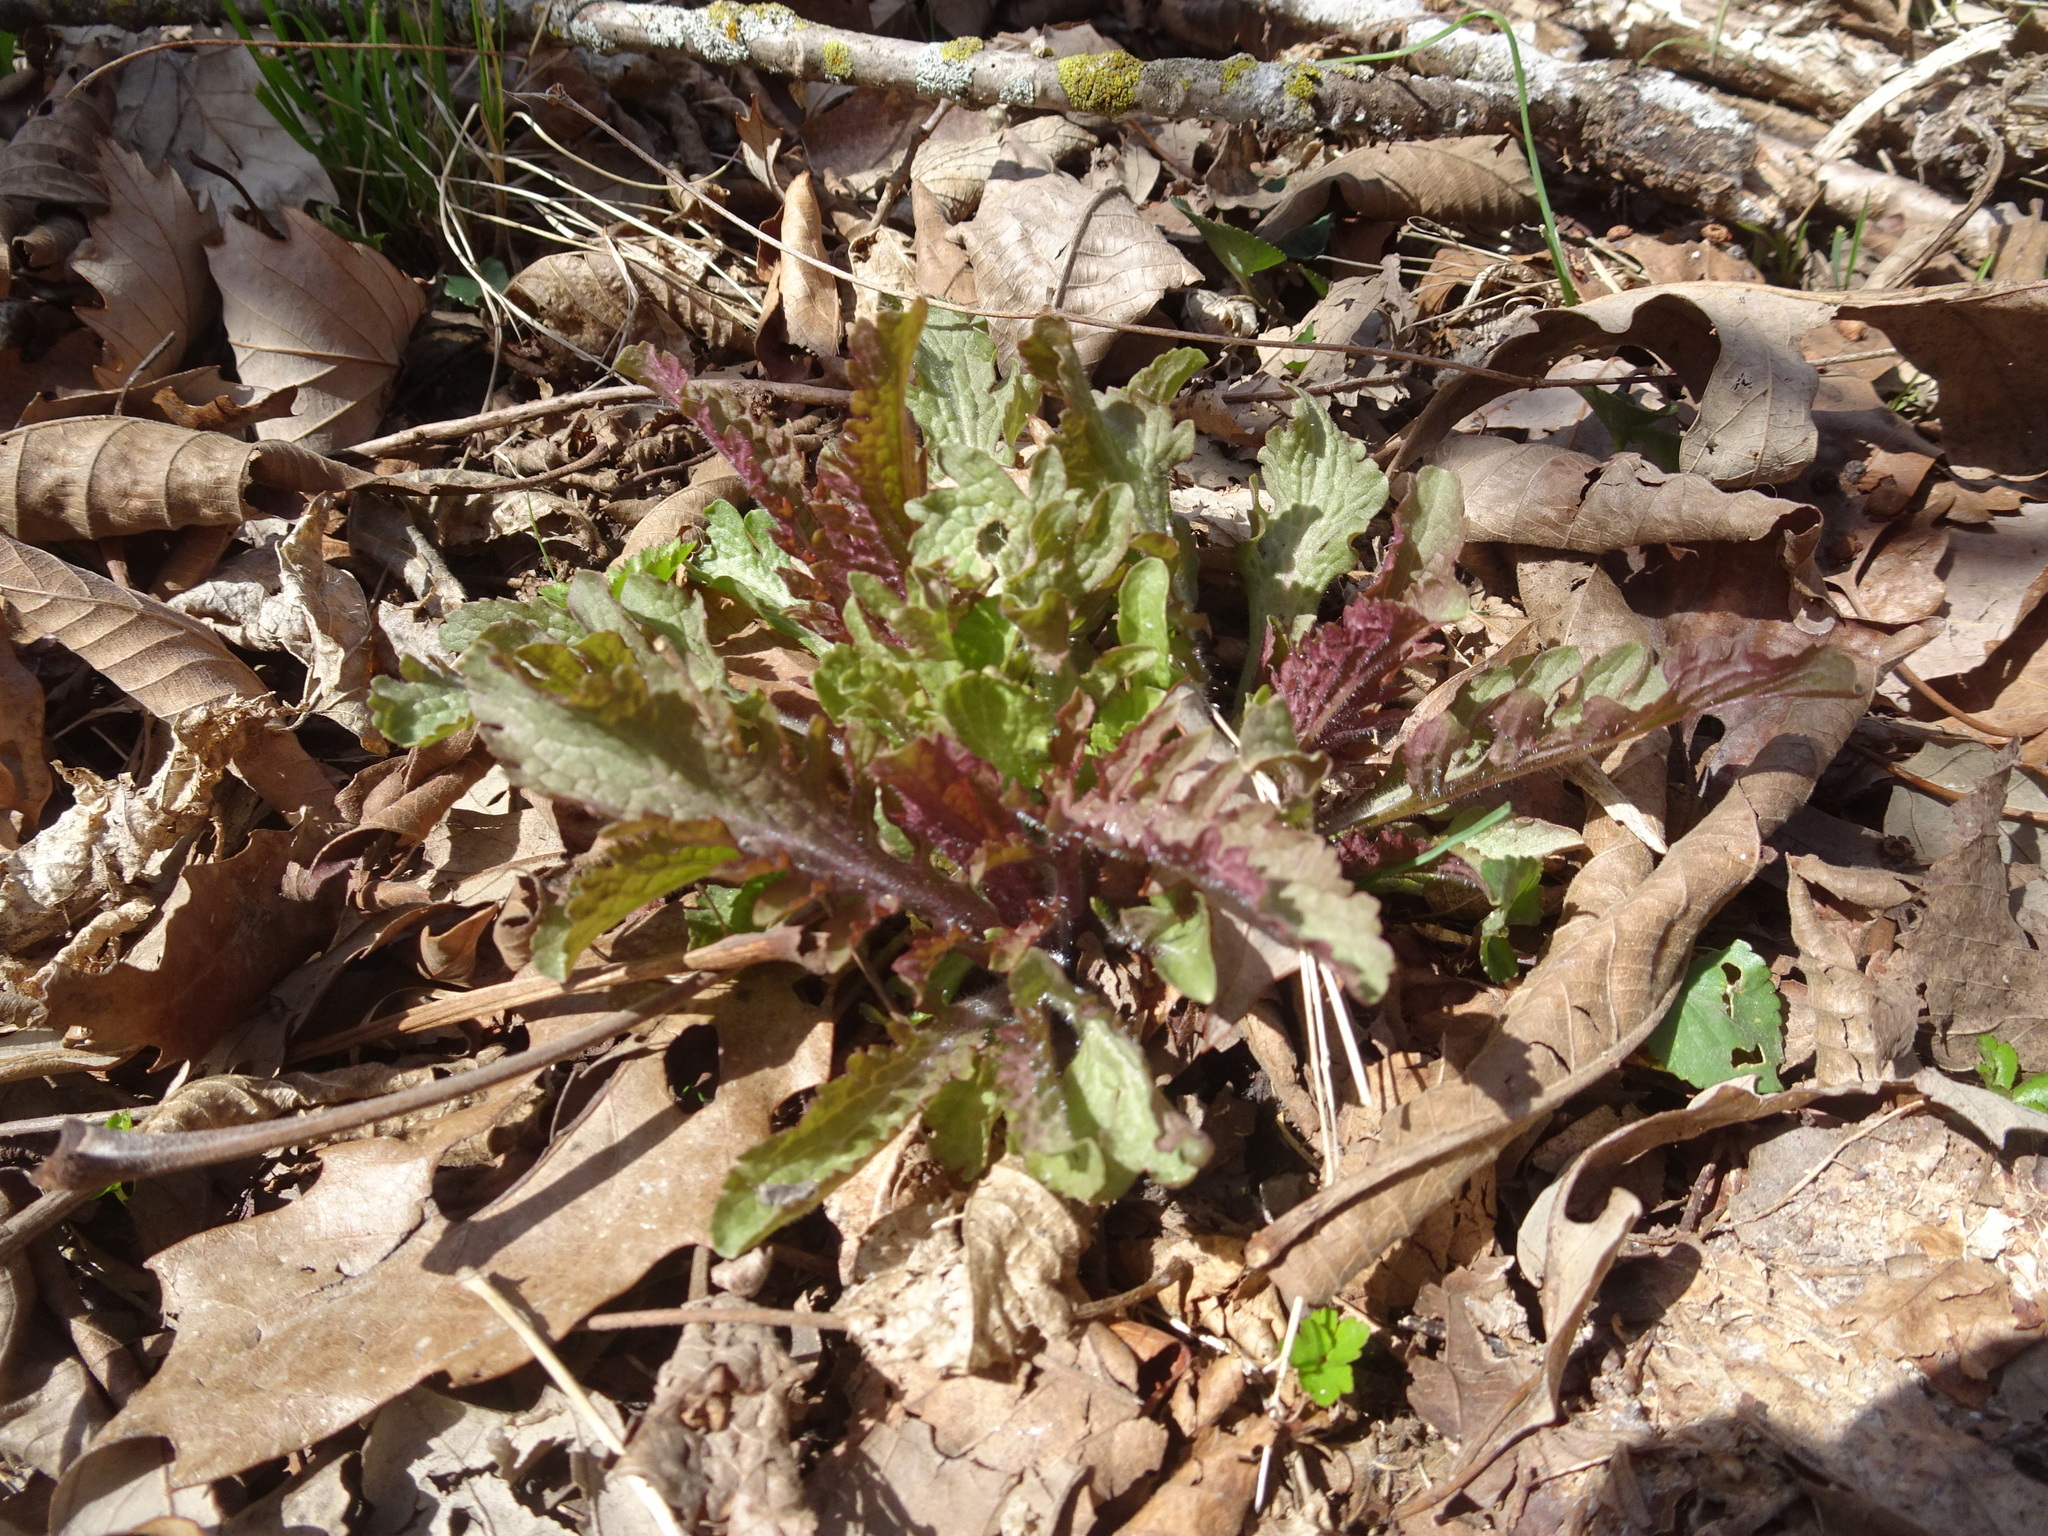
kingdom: Plantae
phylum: Tracheophyta
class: Magnoliopsida
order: Lamiales
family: Orobanchaceae
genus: Dasistoma
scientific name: Dasistoma macrophyllum
